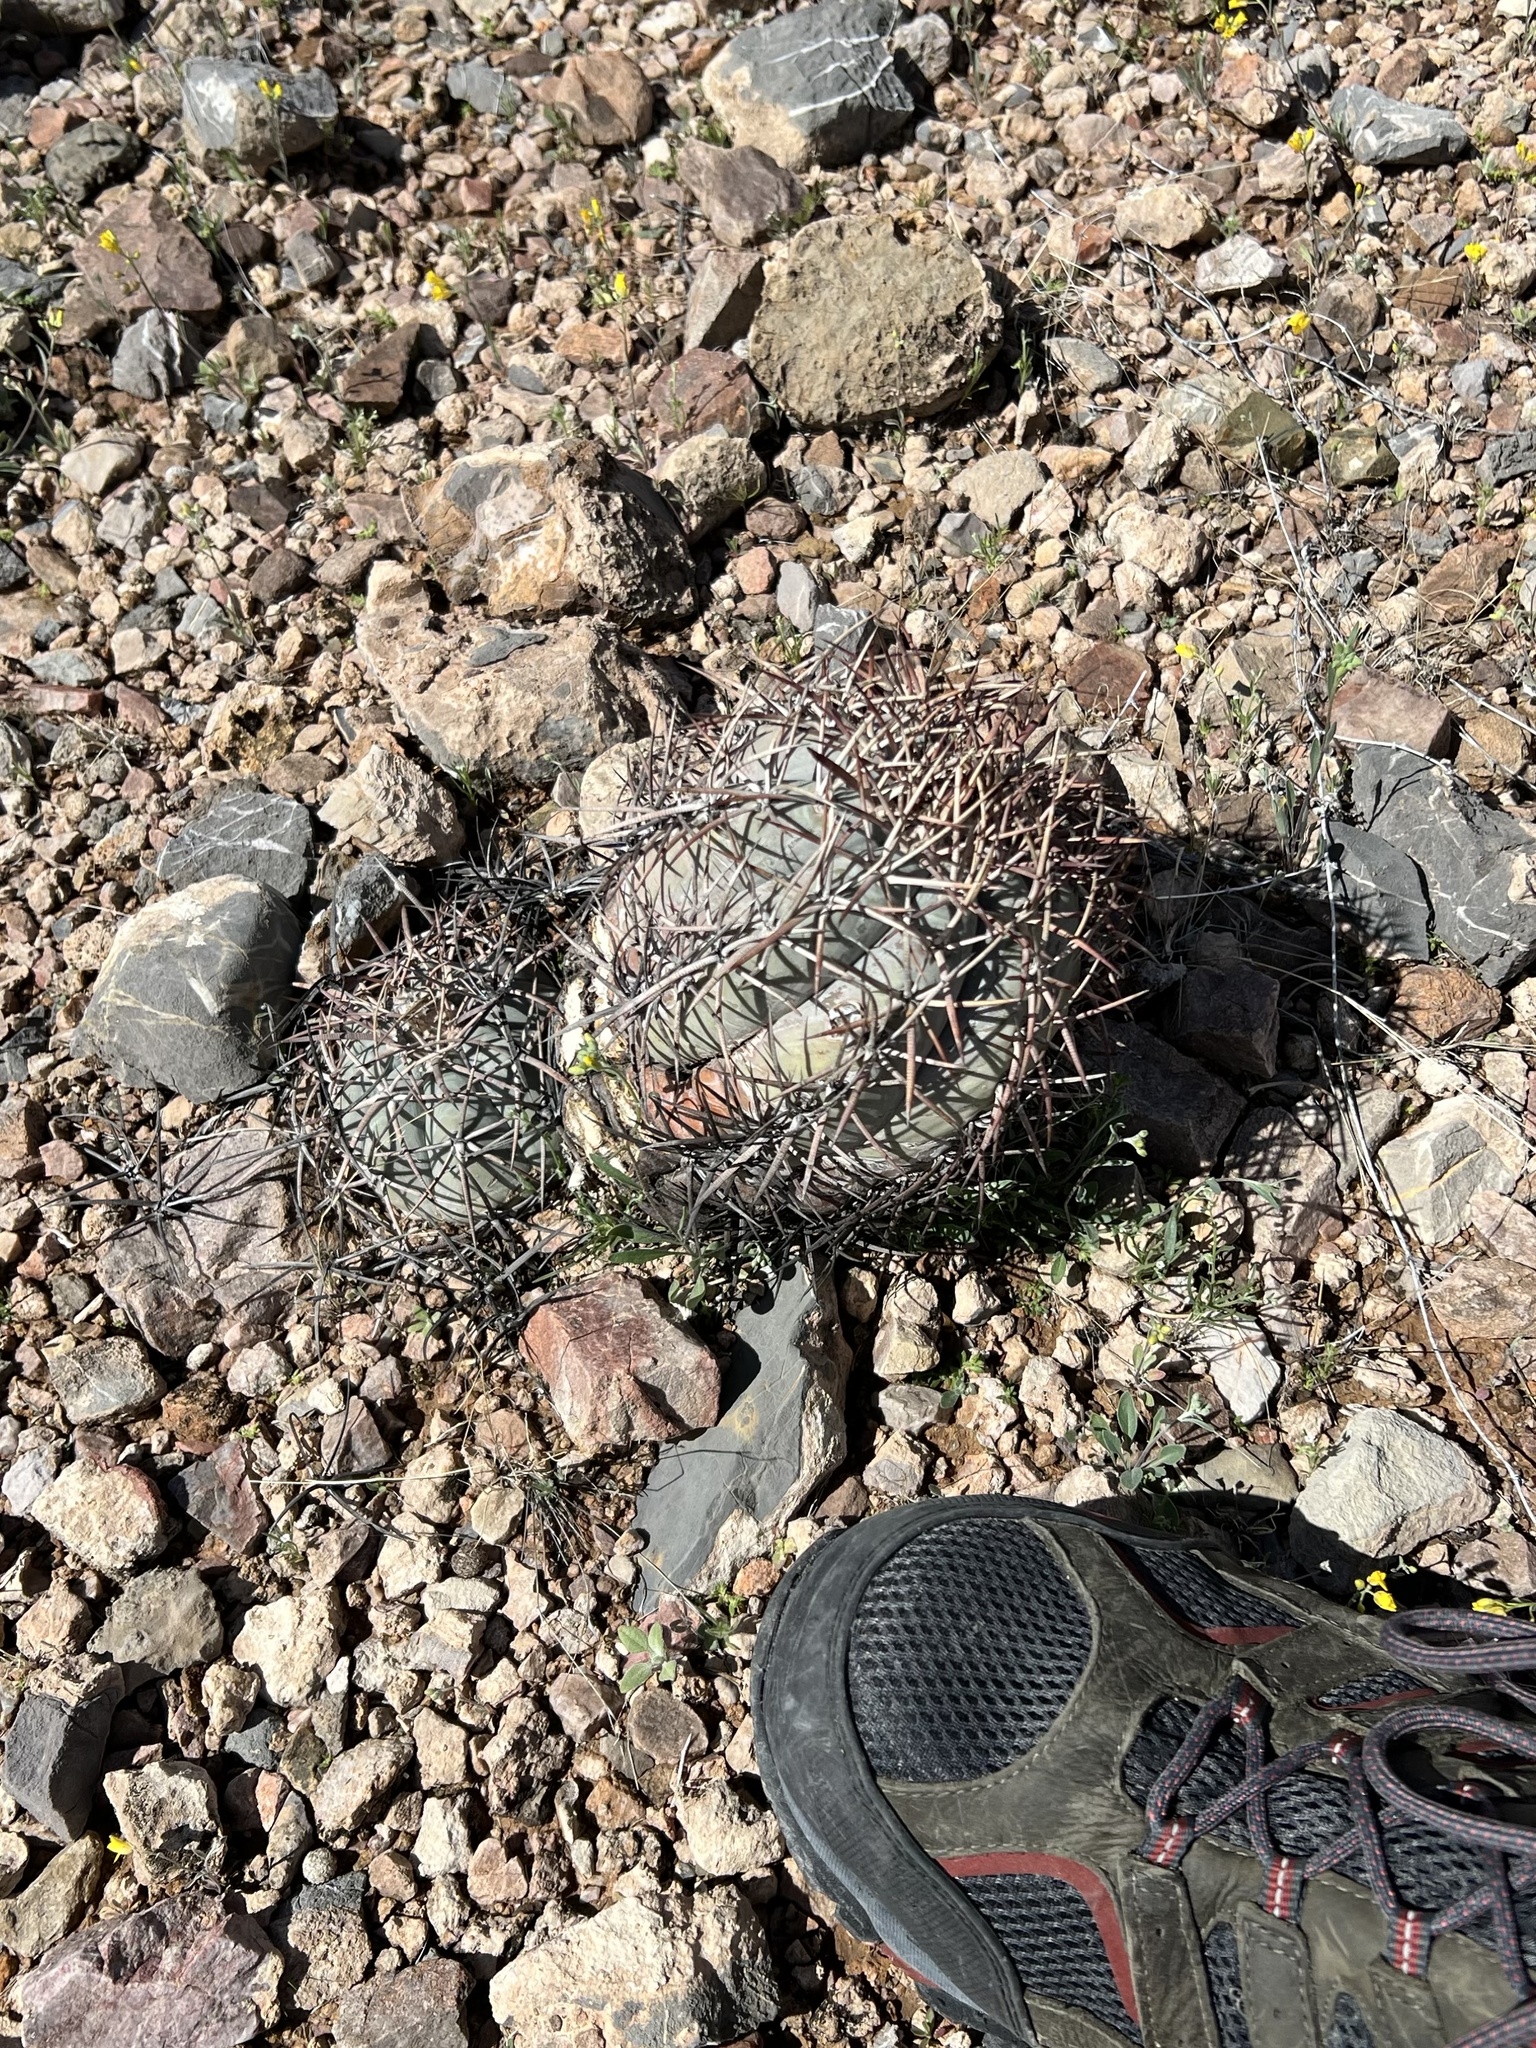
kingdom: Plantae
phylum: Tracheophyta
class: Magnoliopsida
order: Caryophyllales
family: Cactaceae
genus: Echinocactus
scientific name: Echinocactus horizonthalonius
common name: Devilshead
